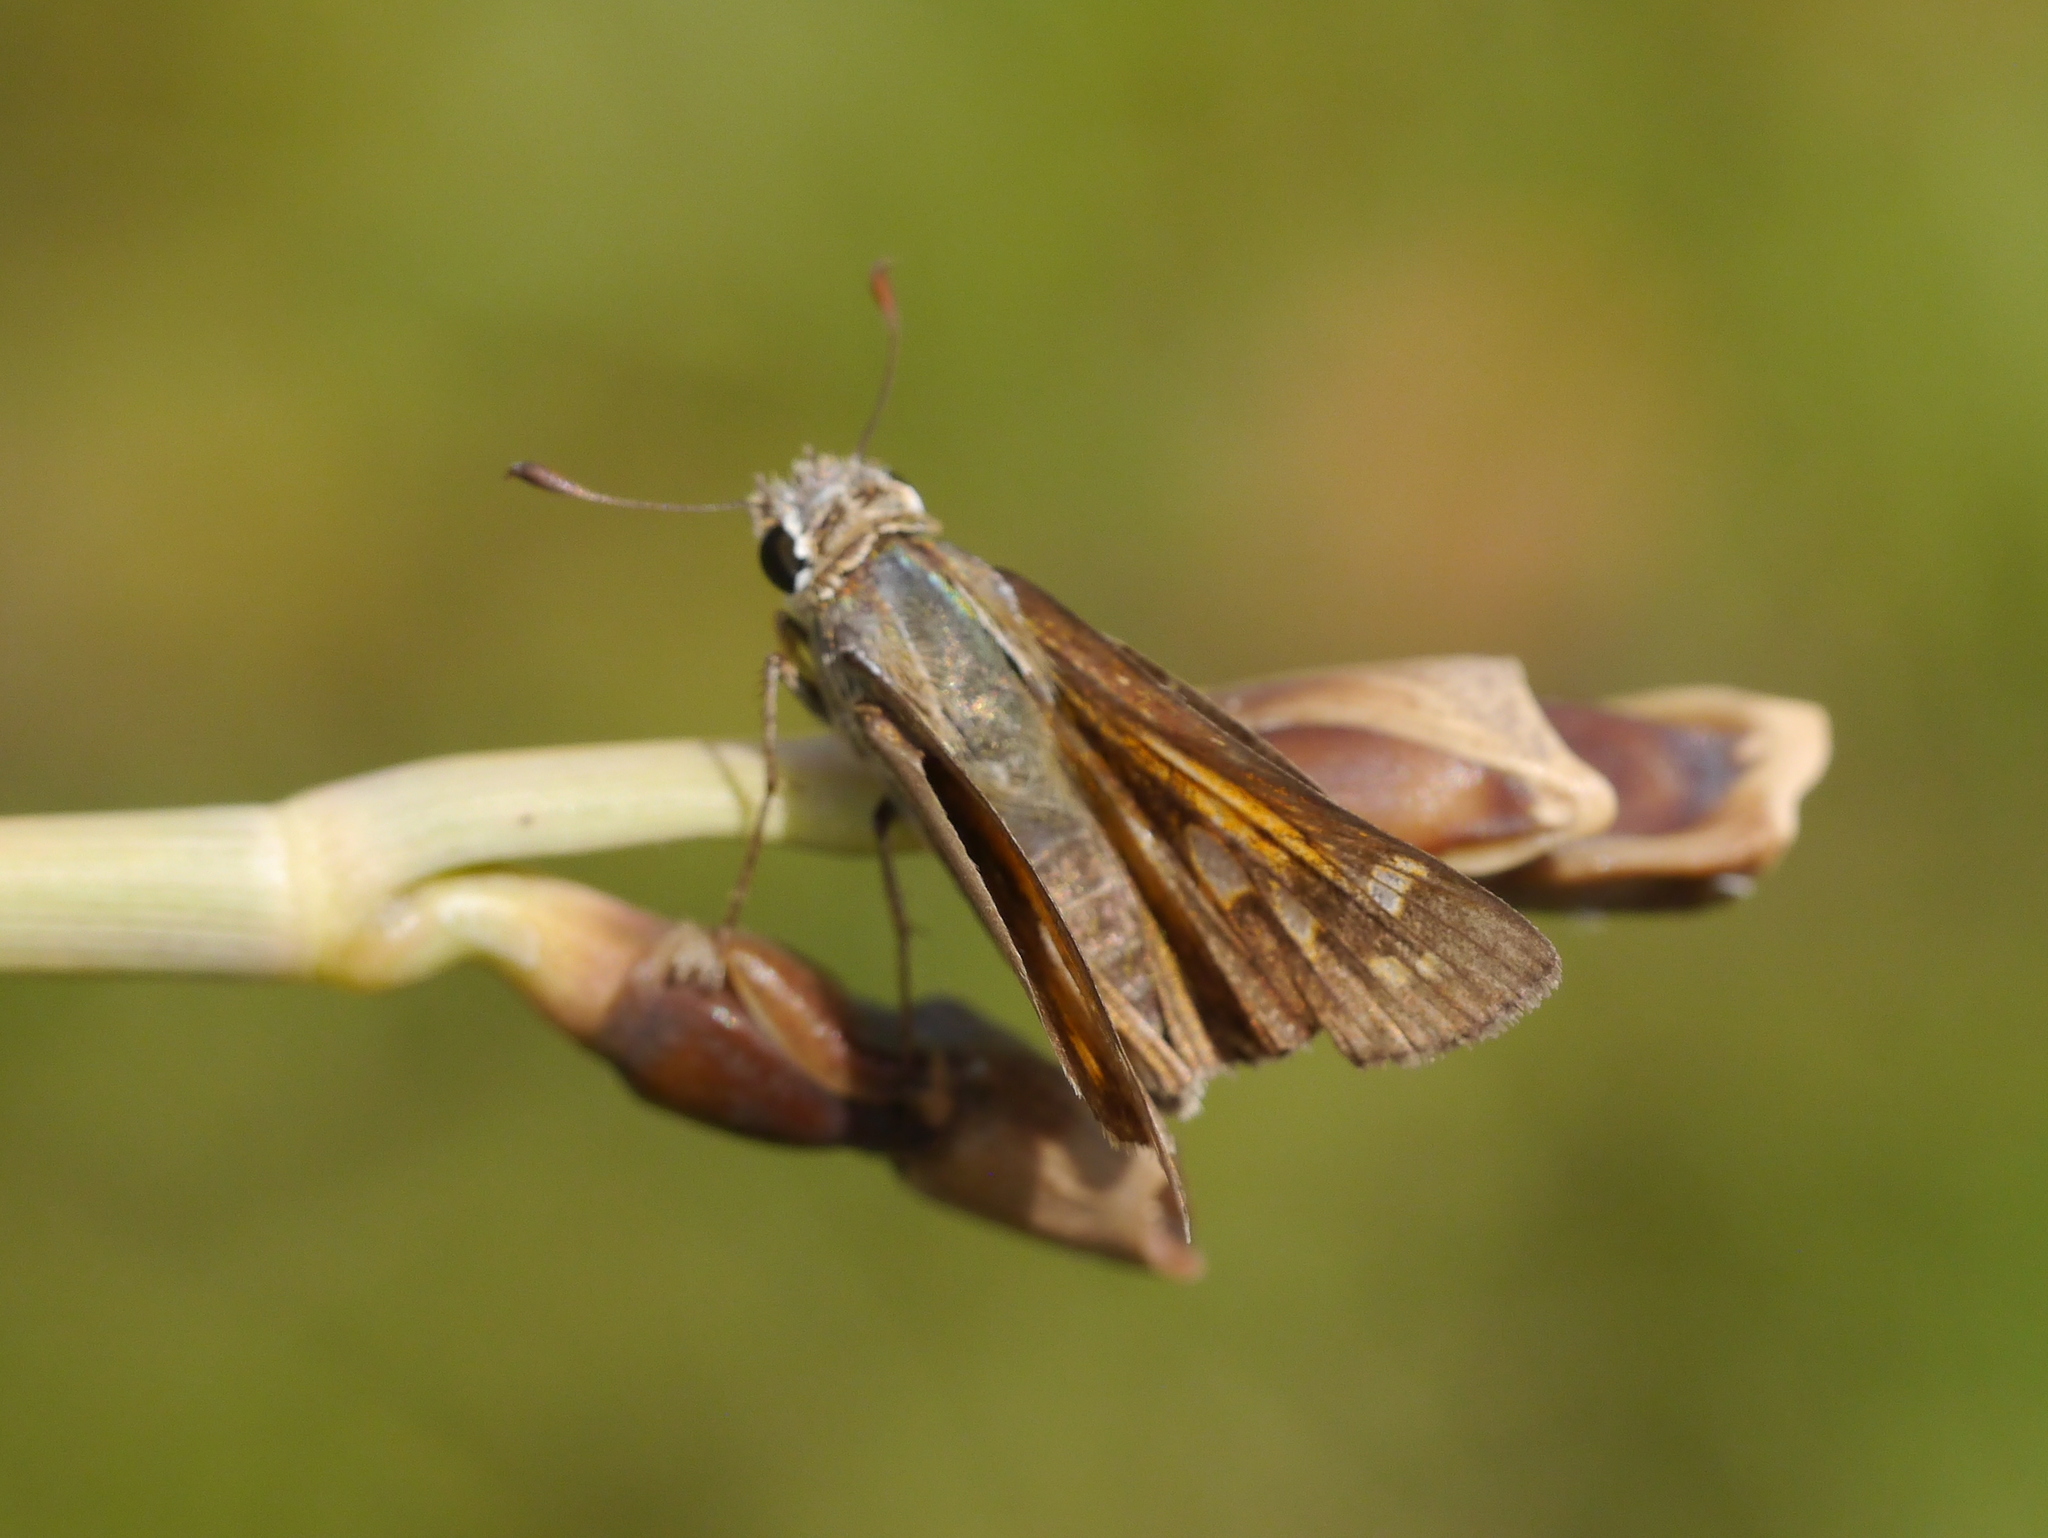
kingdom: Animalia
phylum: Arthropoda
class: Insecta
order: Lepidoptera
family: Hesperiidae
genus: Atalopedes
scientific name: Atalopedes
